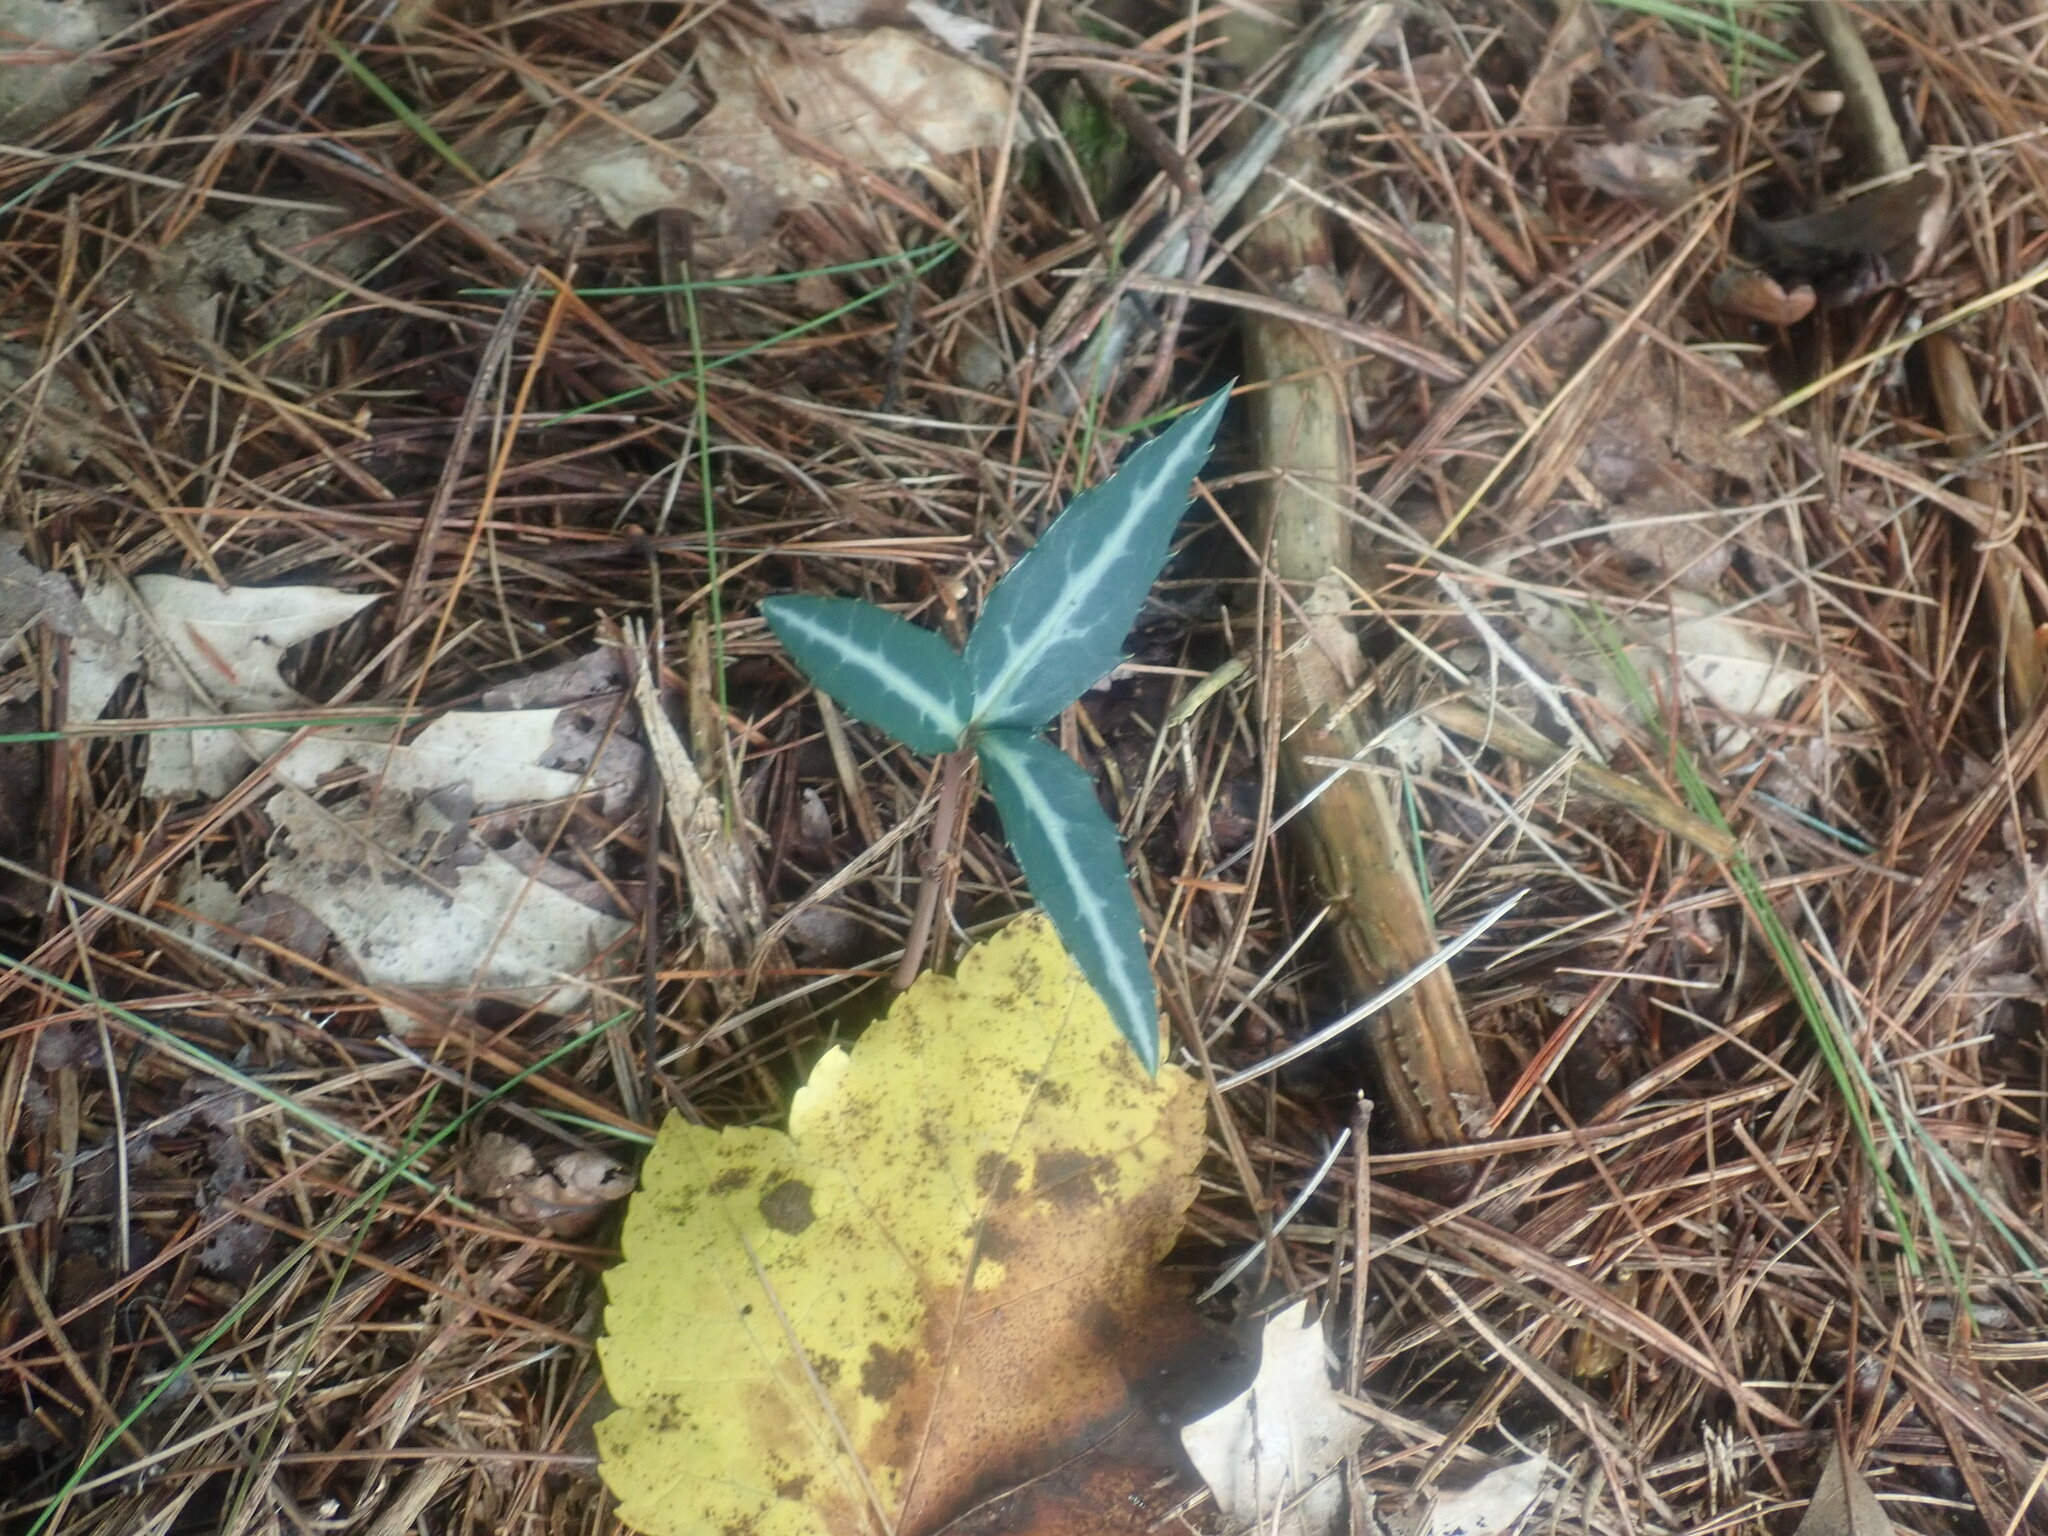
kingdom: Plantae
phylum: Tracheophyta
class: Magnoliopsida
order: Ericales
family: Ericaceae
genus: Chimaphila
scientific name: Chimaphila maculata
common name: Spotted pipsissewa
